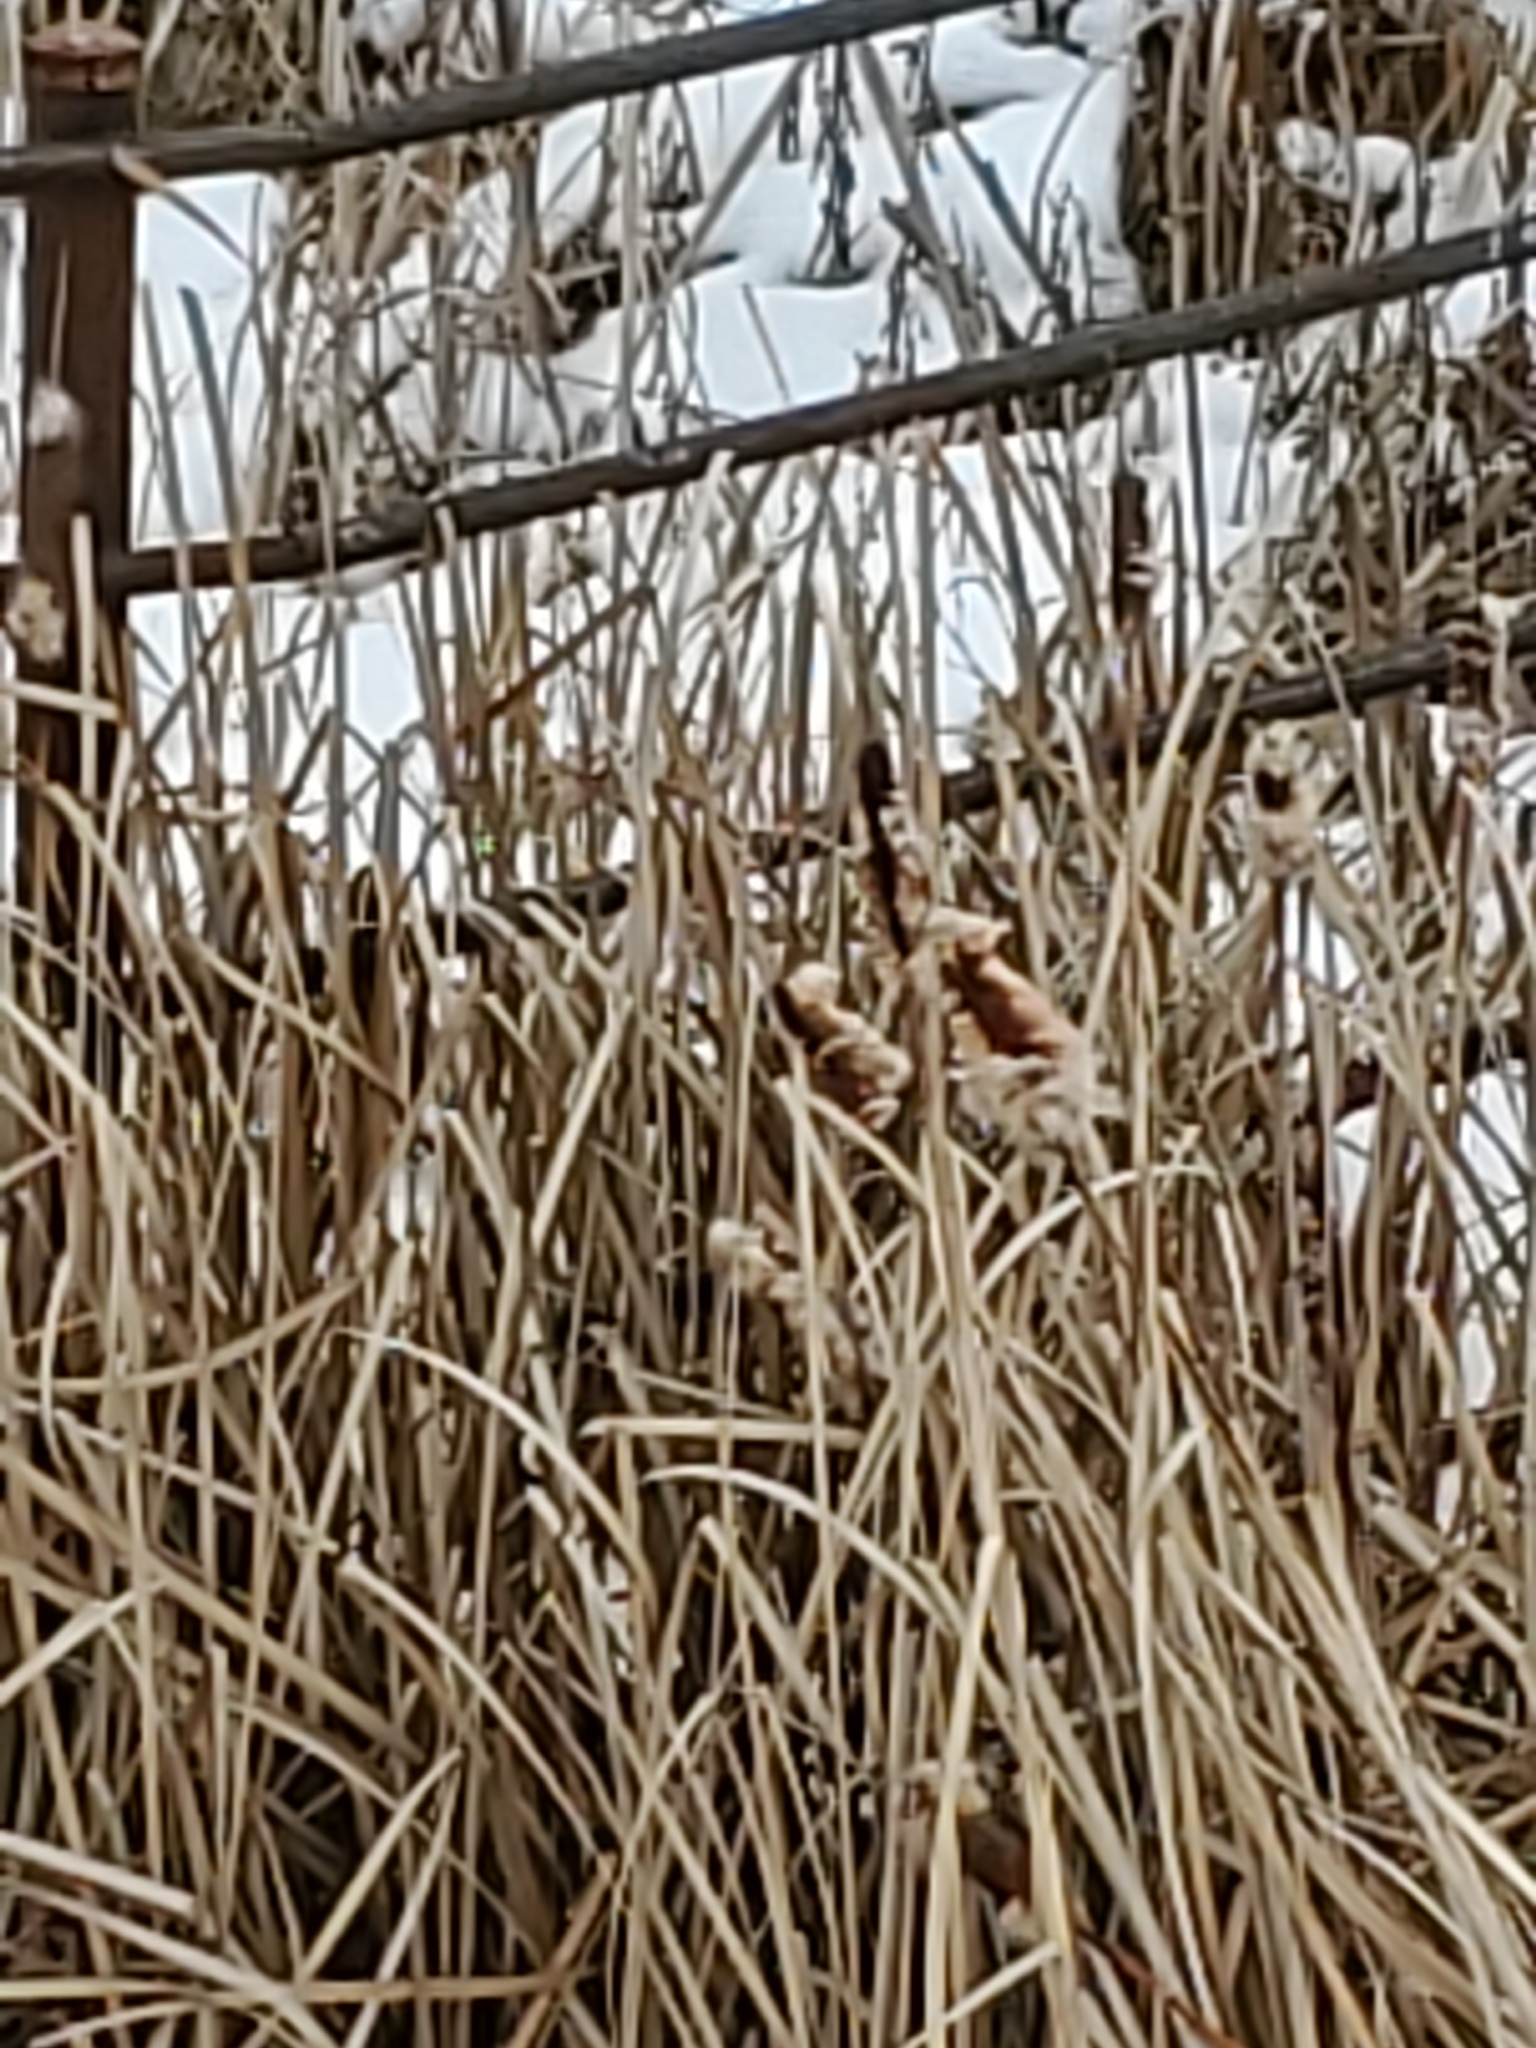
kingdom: Plantae
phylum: Tracheophyta
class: Liliopsida
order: Poales
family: Typhaceae
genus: Typha
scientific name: Typha latifolia
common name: Broadleaf cattail
